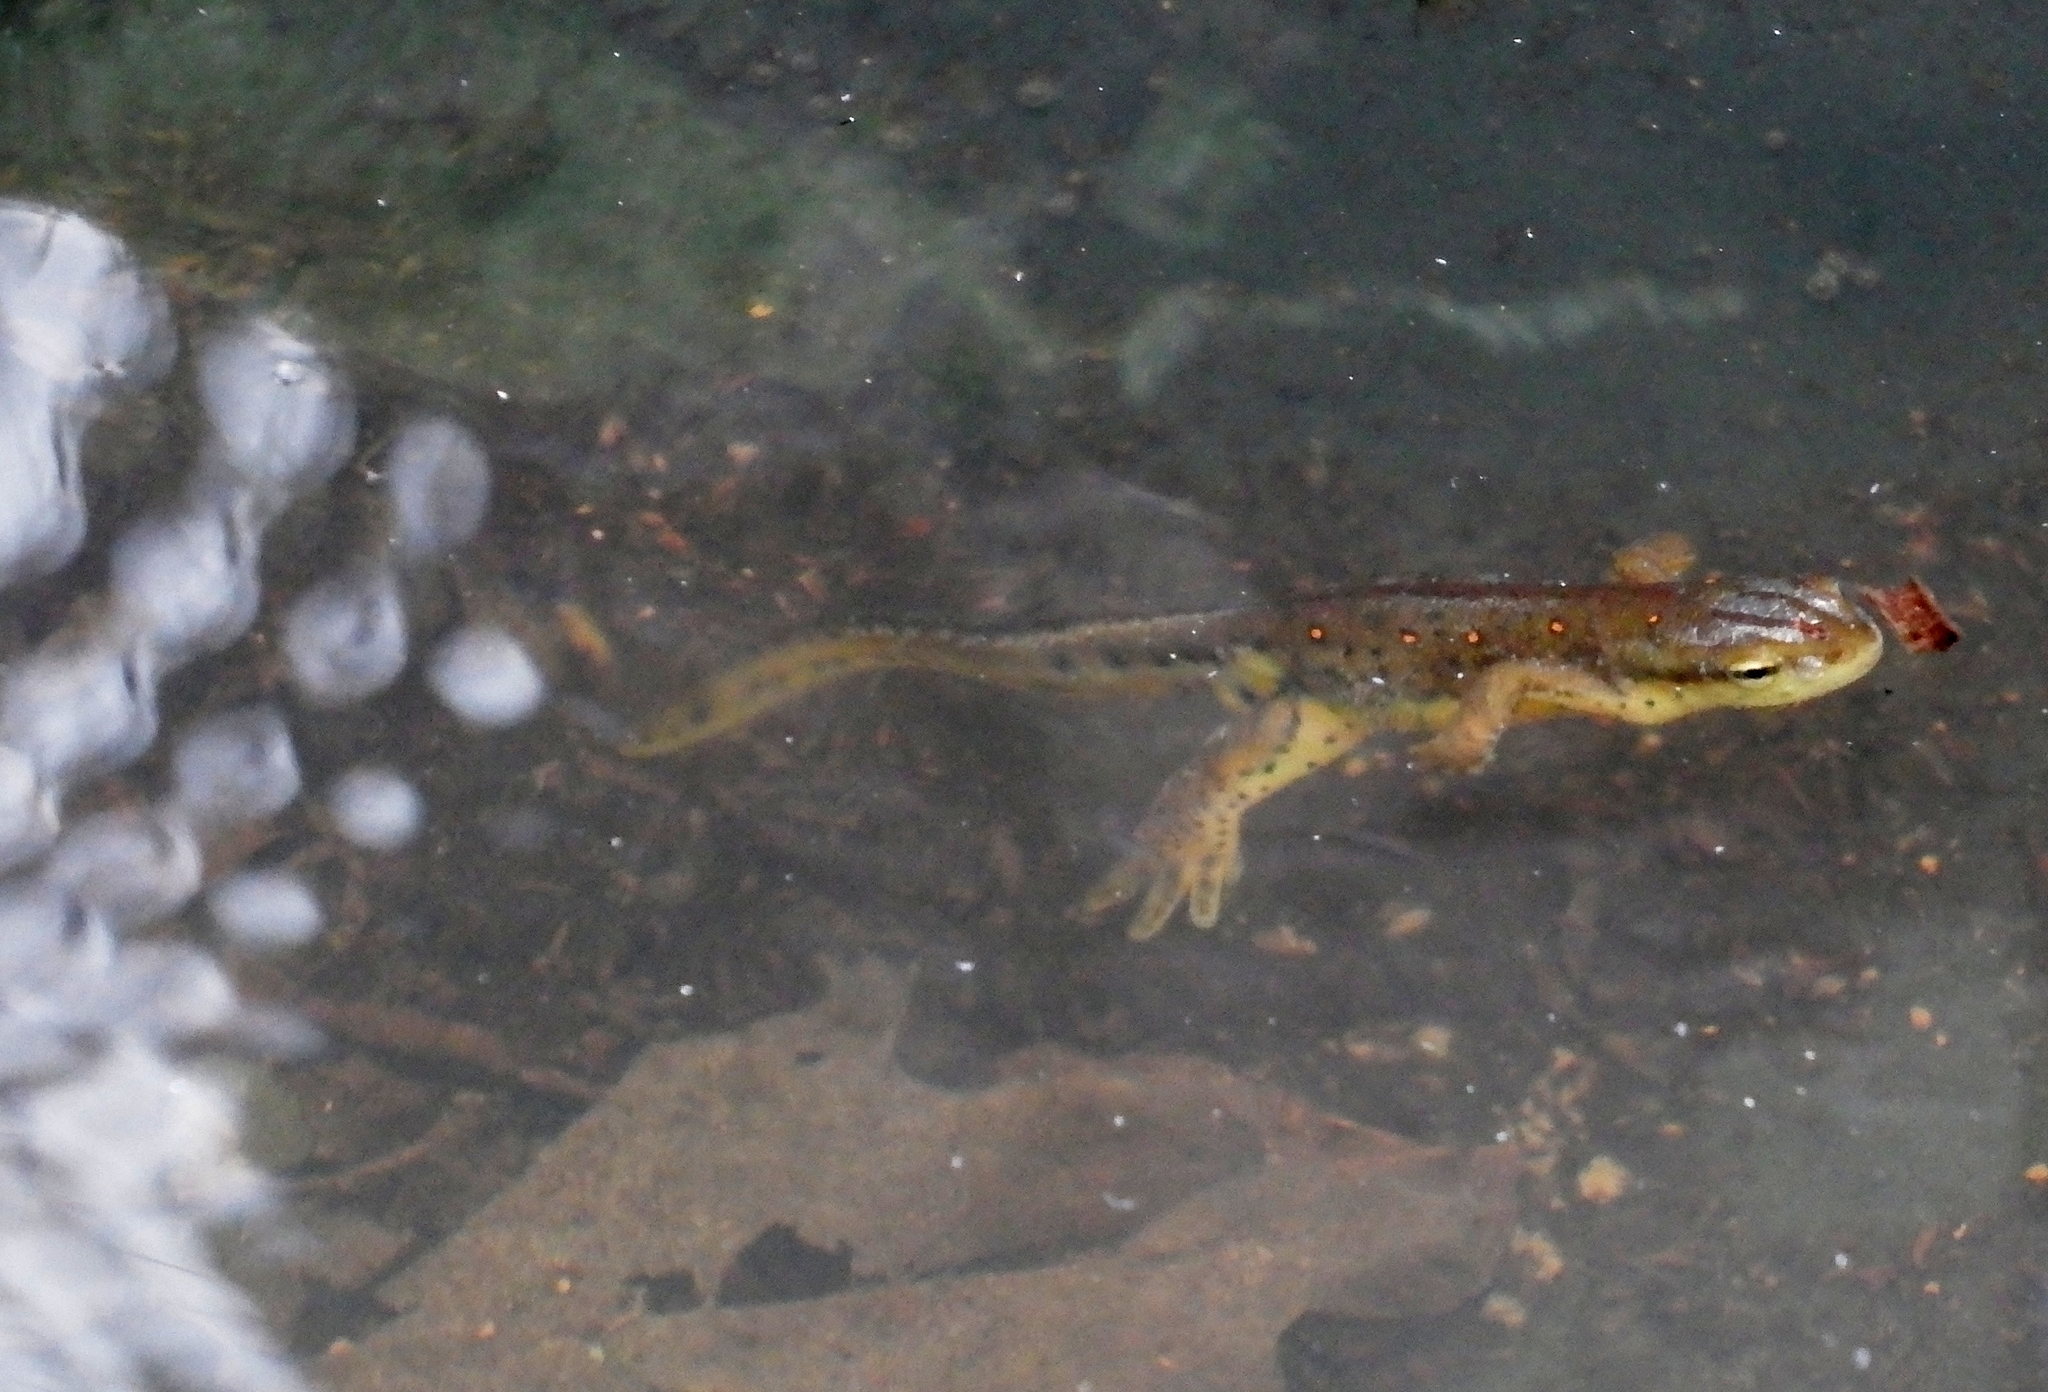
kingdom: Animalia
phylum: Chordata
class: Amphibia
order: Caudata
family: Salamandridae
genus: Notophthalmus
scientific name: Notophthalmus viridescens
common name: Eastern newt
